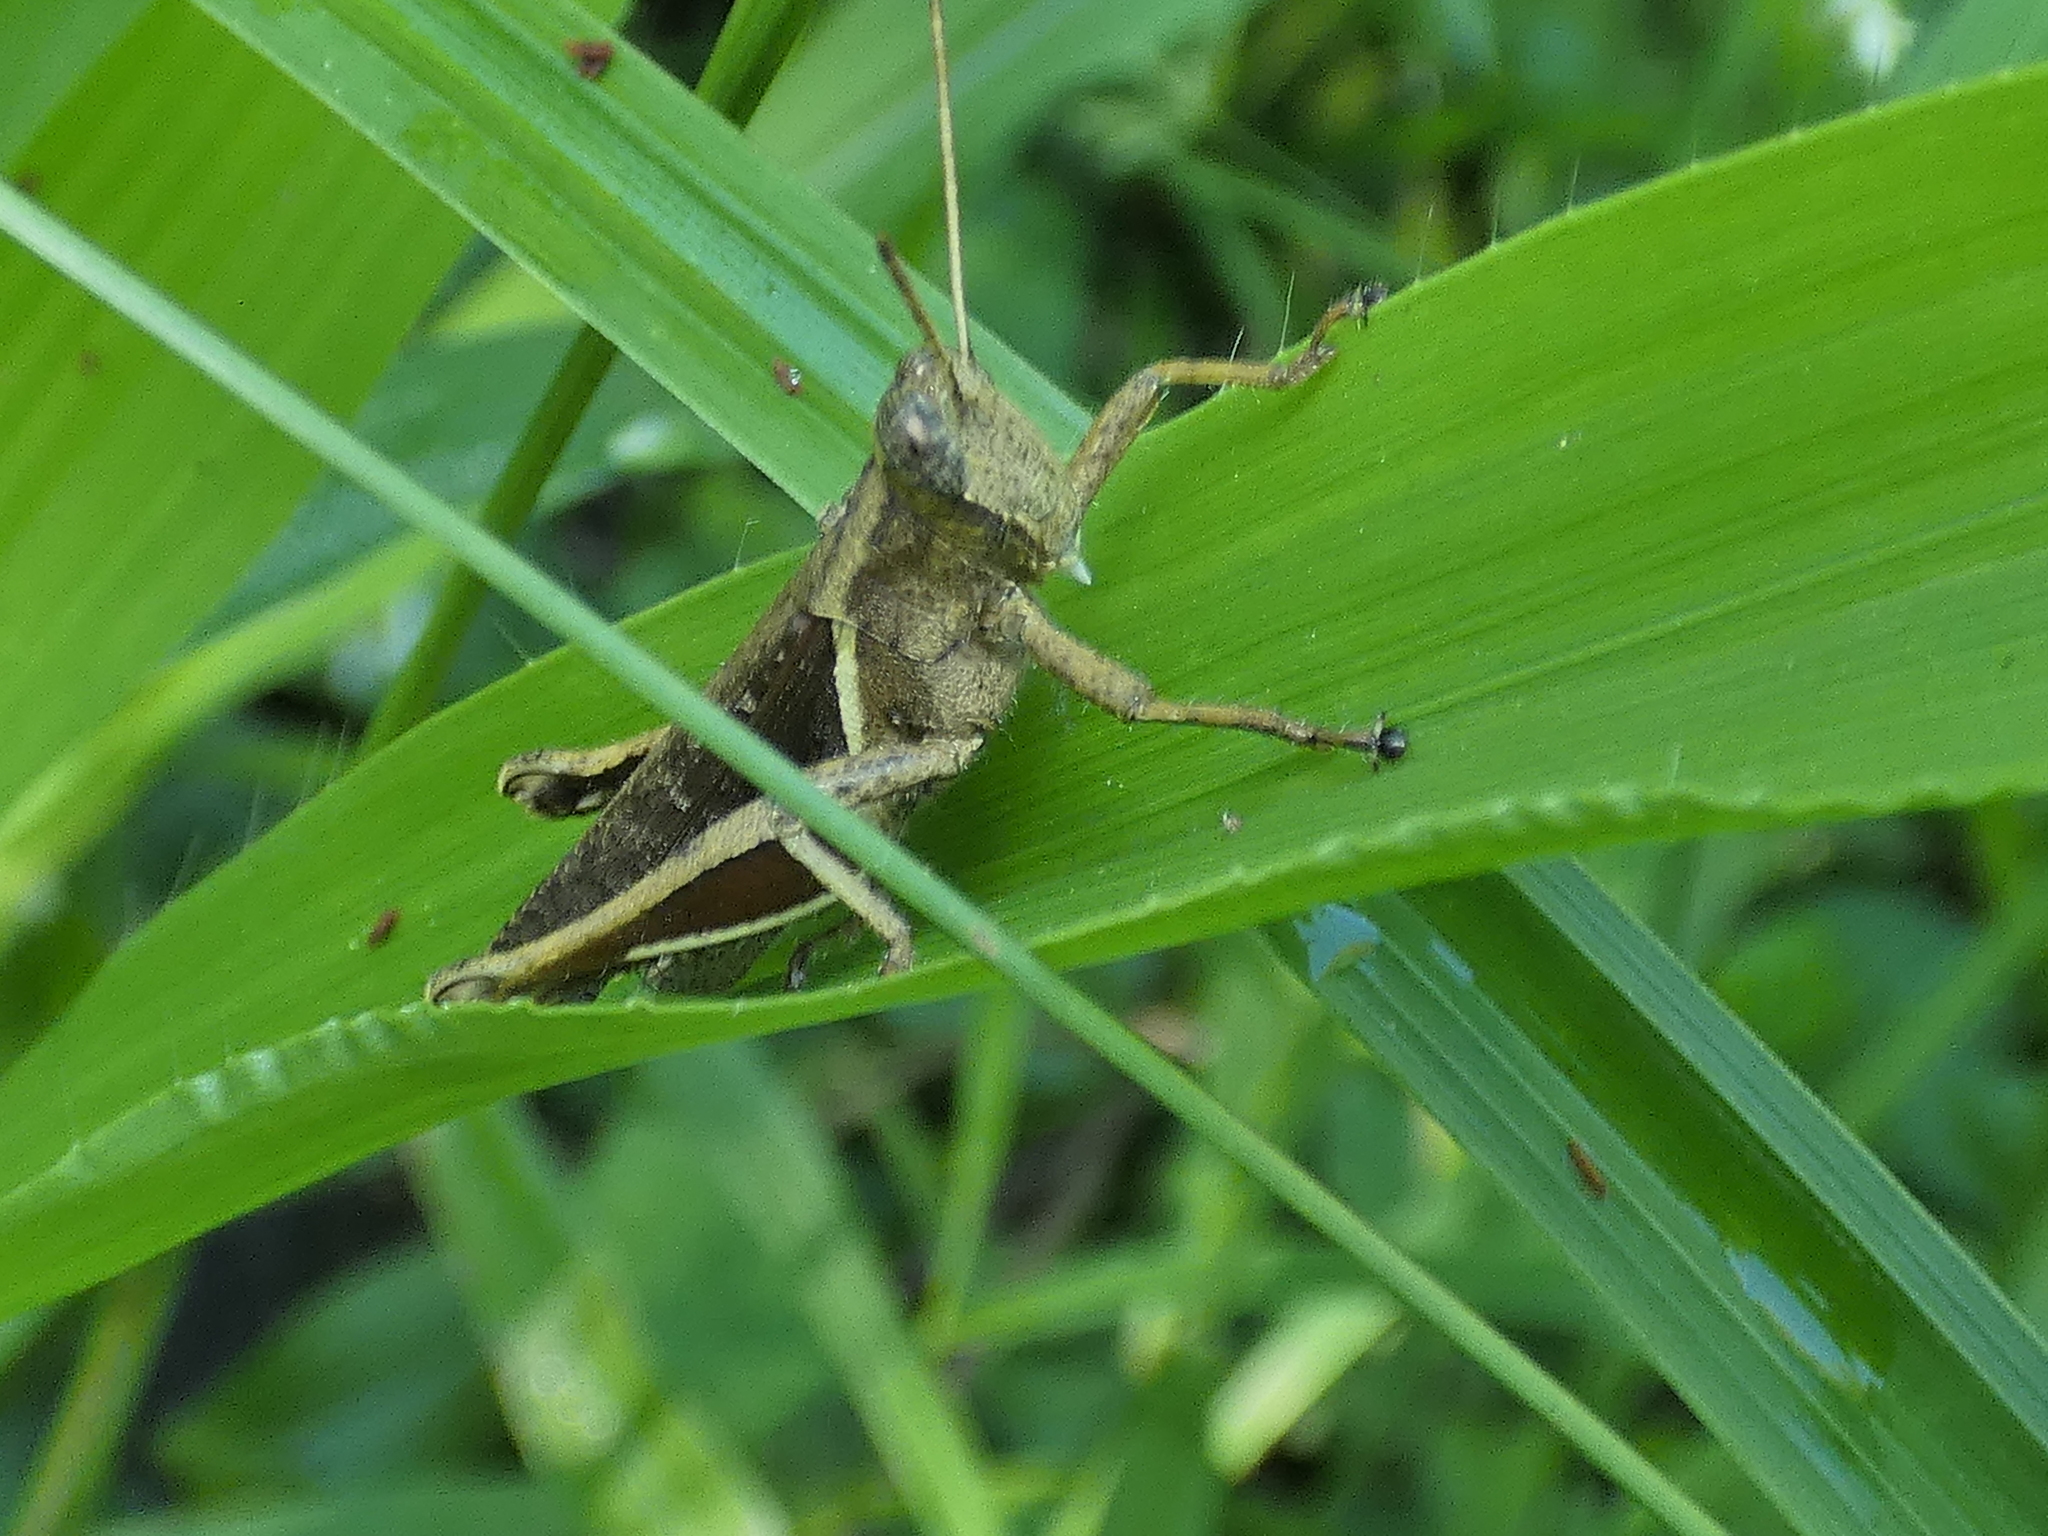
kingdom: Animalia
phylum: Arthropoda
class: Insecta
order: Orthoptera
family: Acrididae
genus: Abracris
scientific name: Abracris flavolineata
